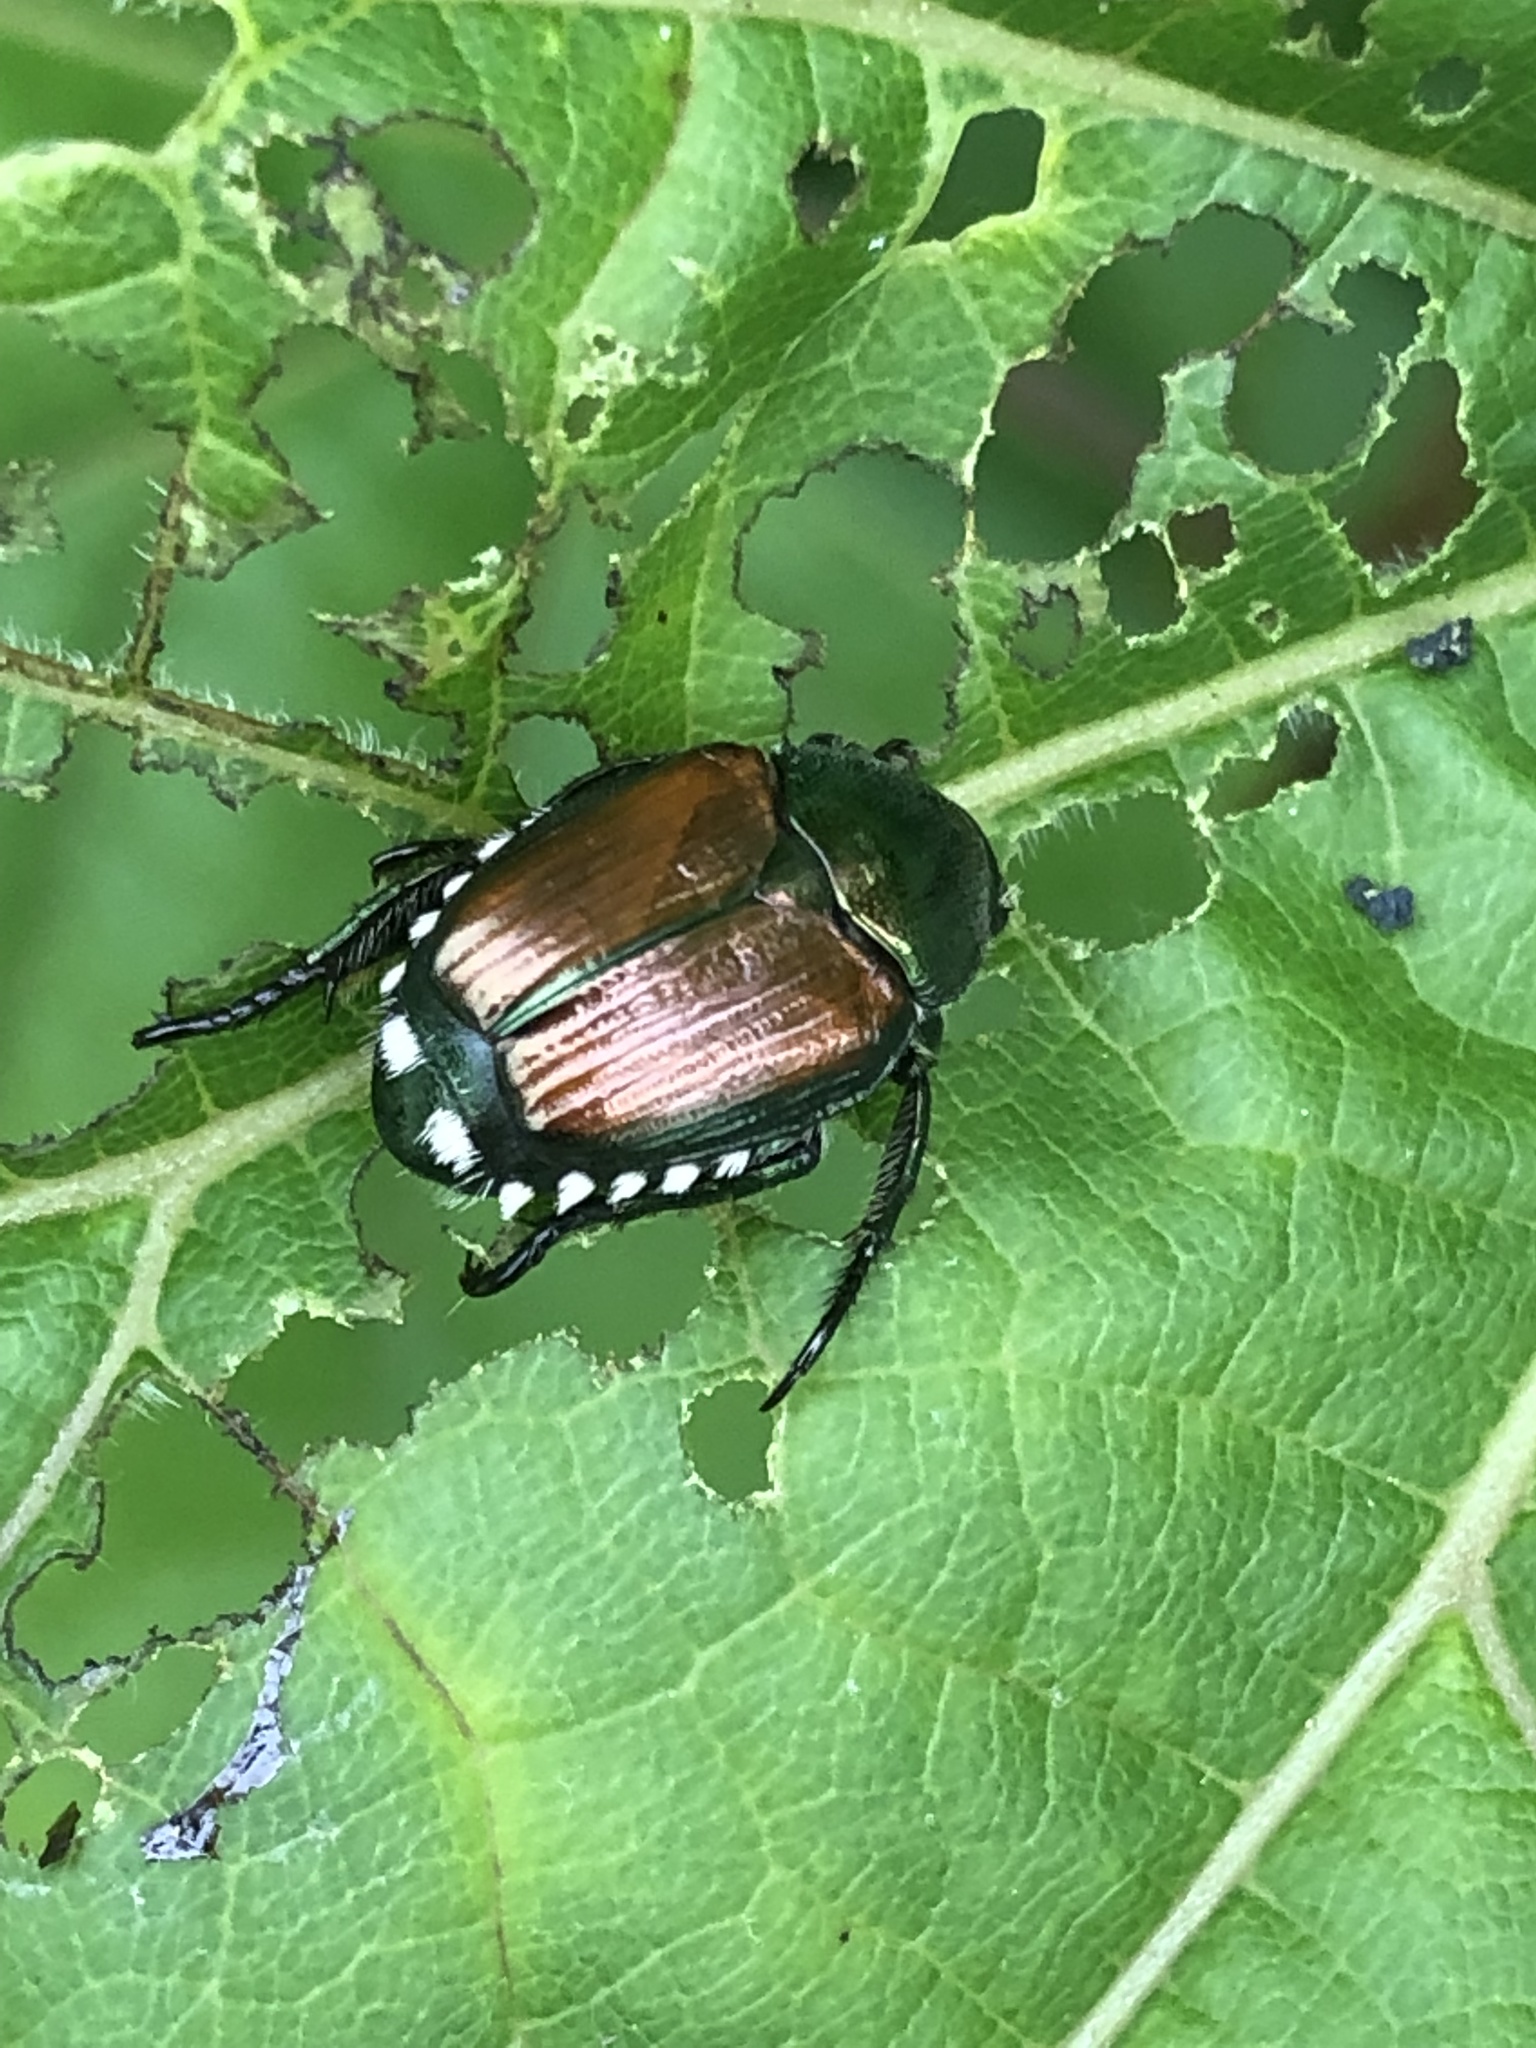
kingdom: Animalia
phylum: Arthropoda
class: Insecta
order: Coleoptera
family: Scarabaeidae
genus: Popillia
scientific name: Popillia japonica
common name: Japanese beetle
